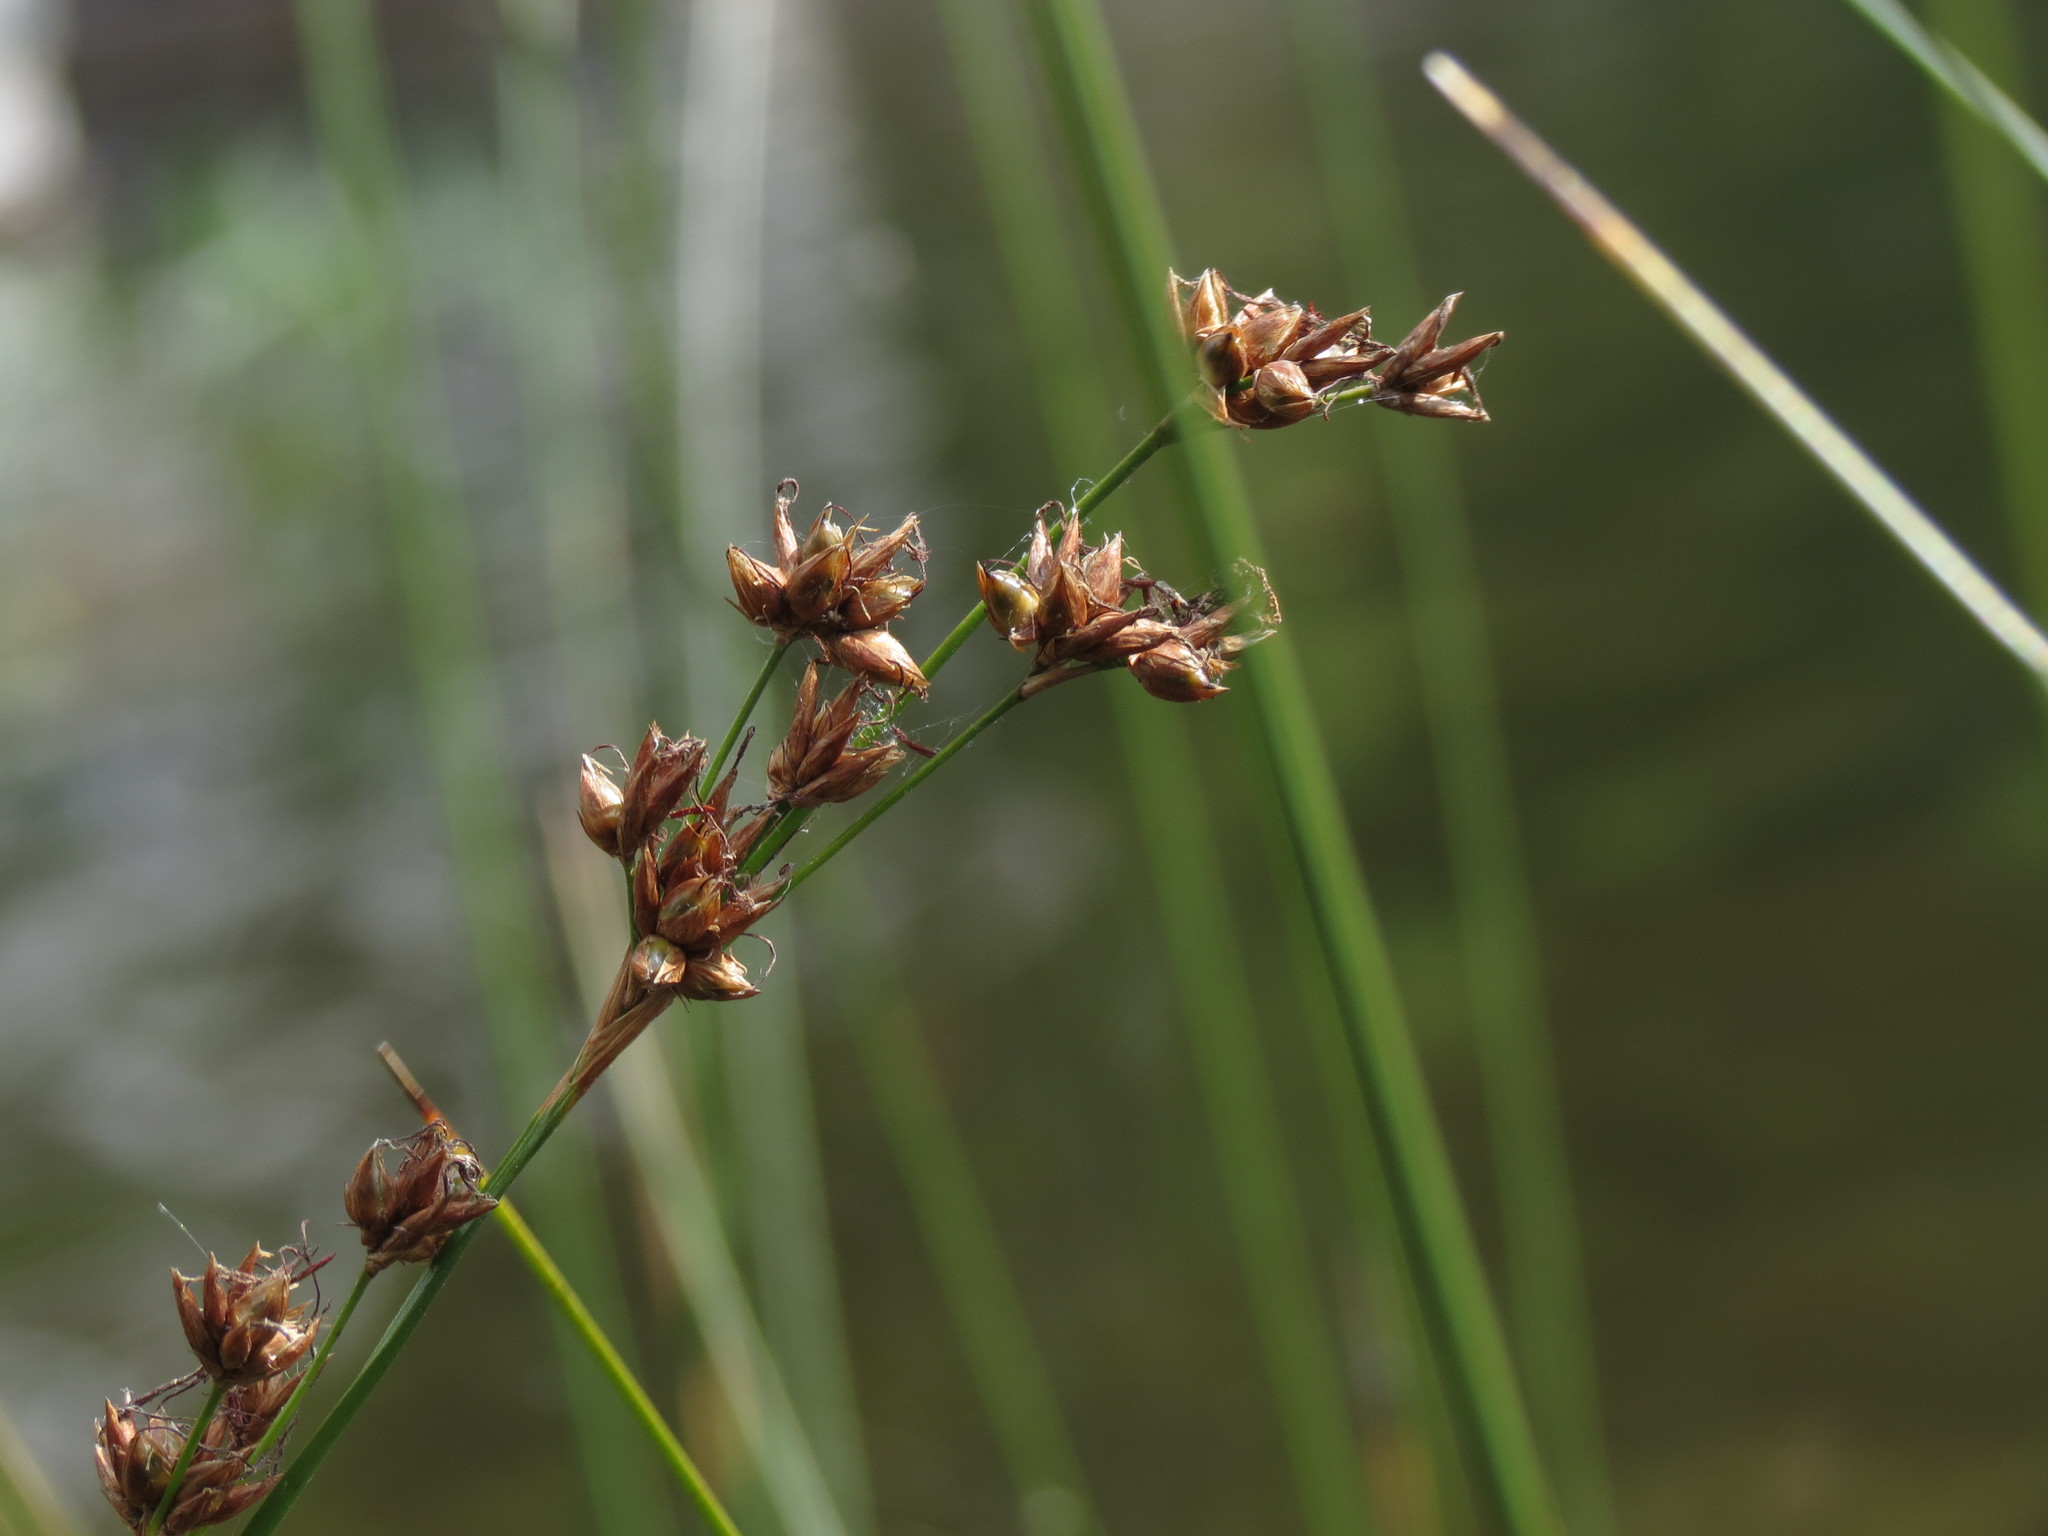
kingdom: Plantae
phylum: Tracheophyta
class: Liliopsida
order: Poales
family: Cyperaceae
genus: Cladium
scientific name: Cladium mariscoides
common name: Smooth sawgrass
